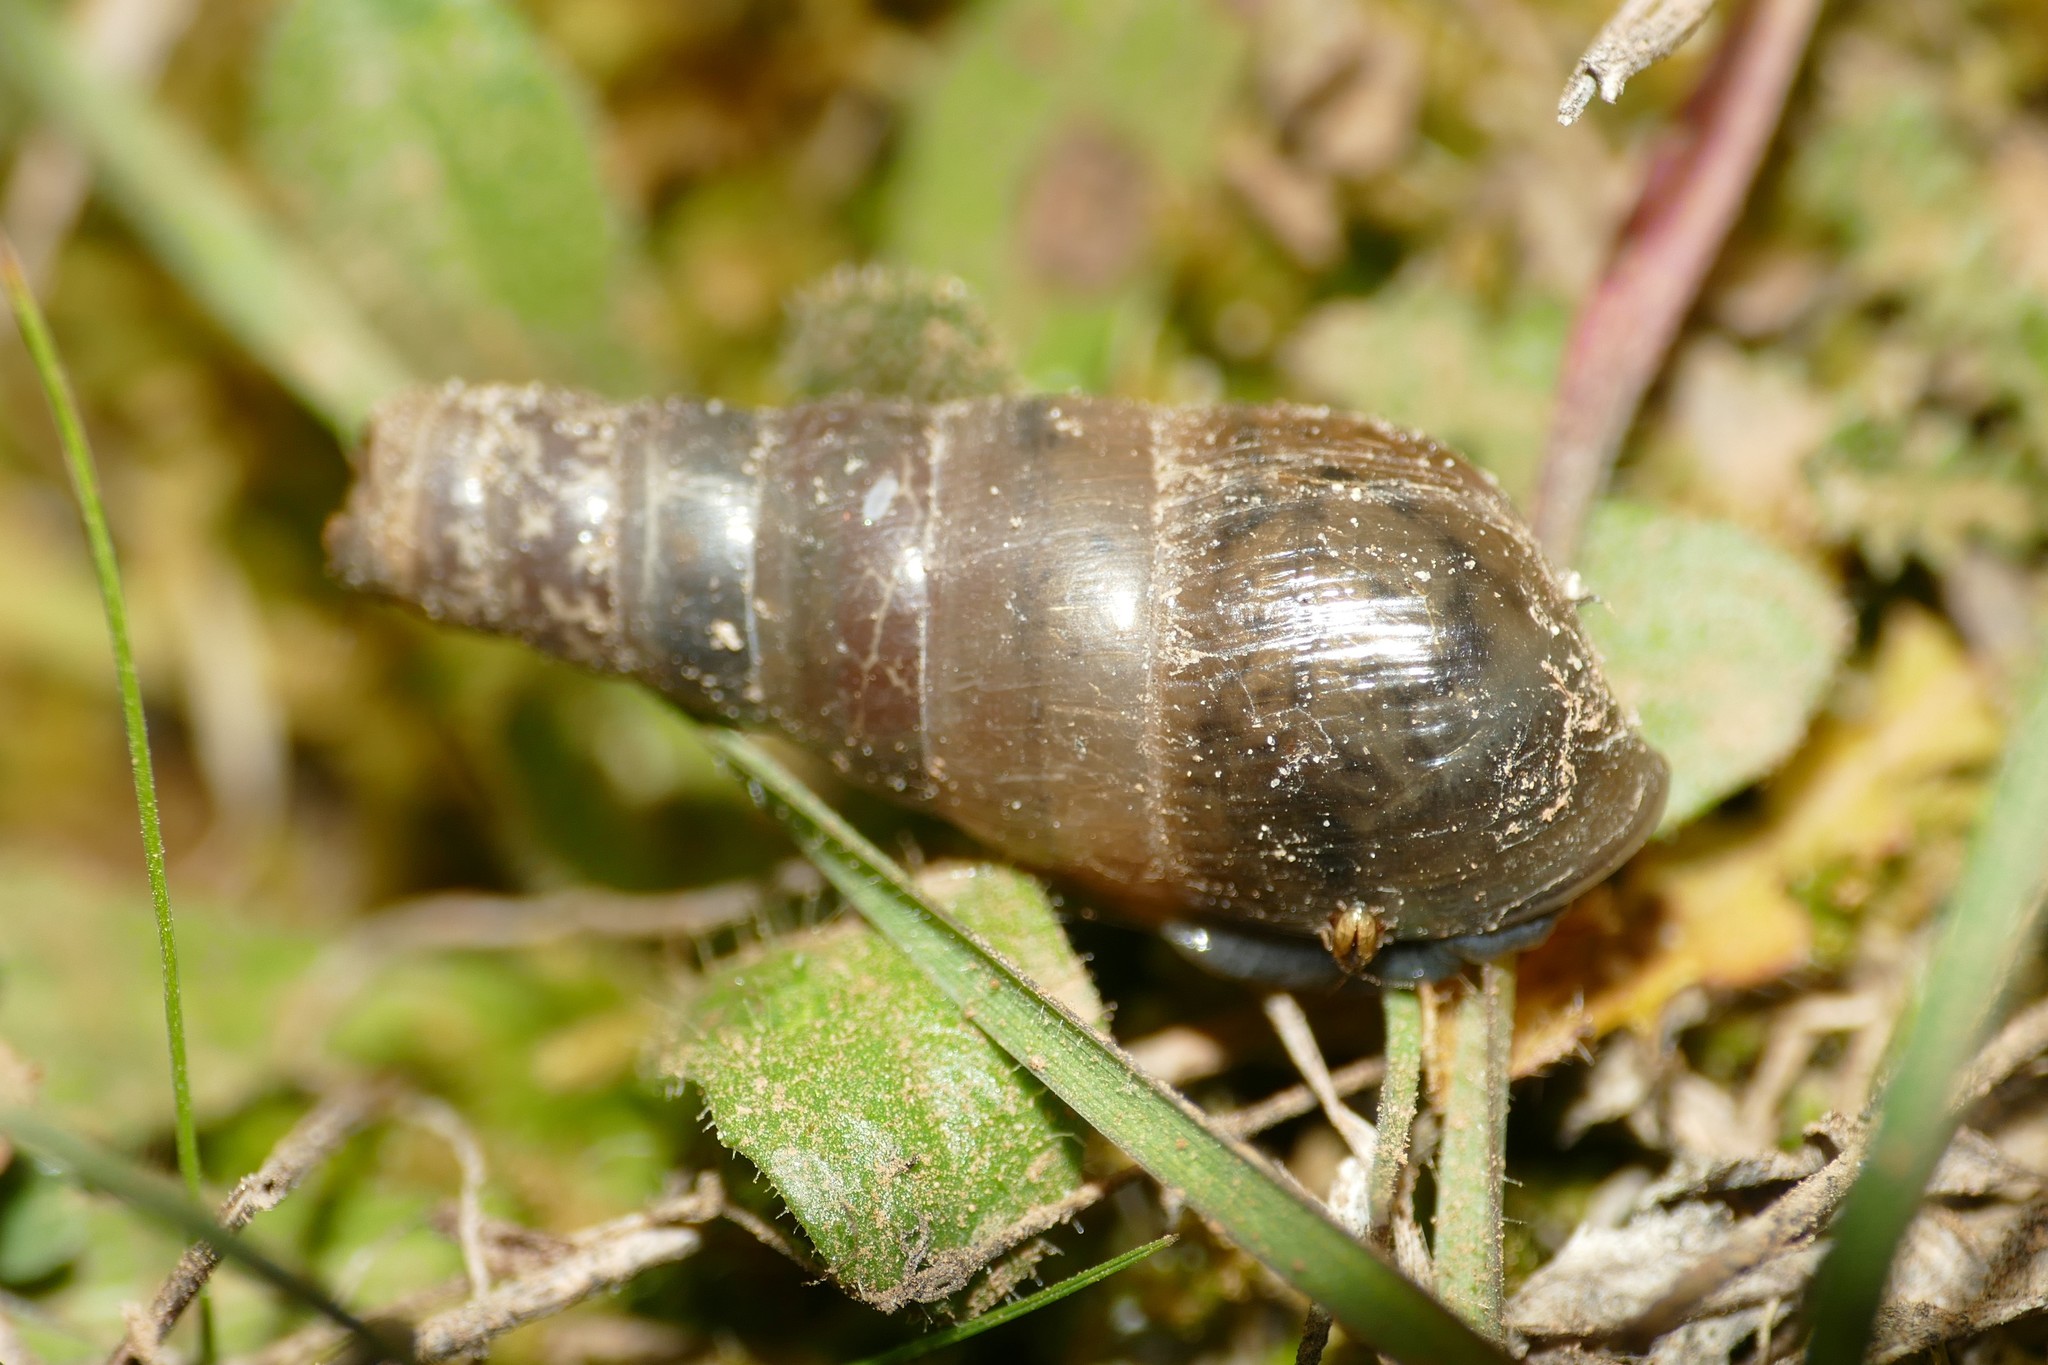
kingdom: Animalia
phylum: Mollusca
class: Gastropoda
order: Stylommatophora
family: Achatinidae
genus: Rumina
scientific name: Rumina decollata
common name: Decollate snail
